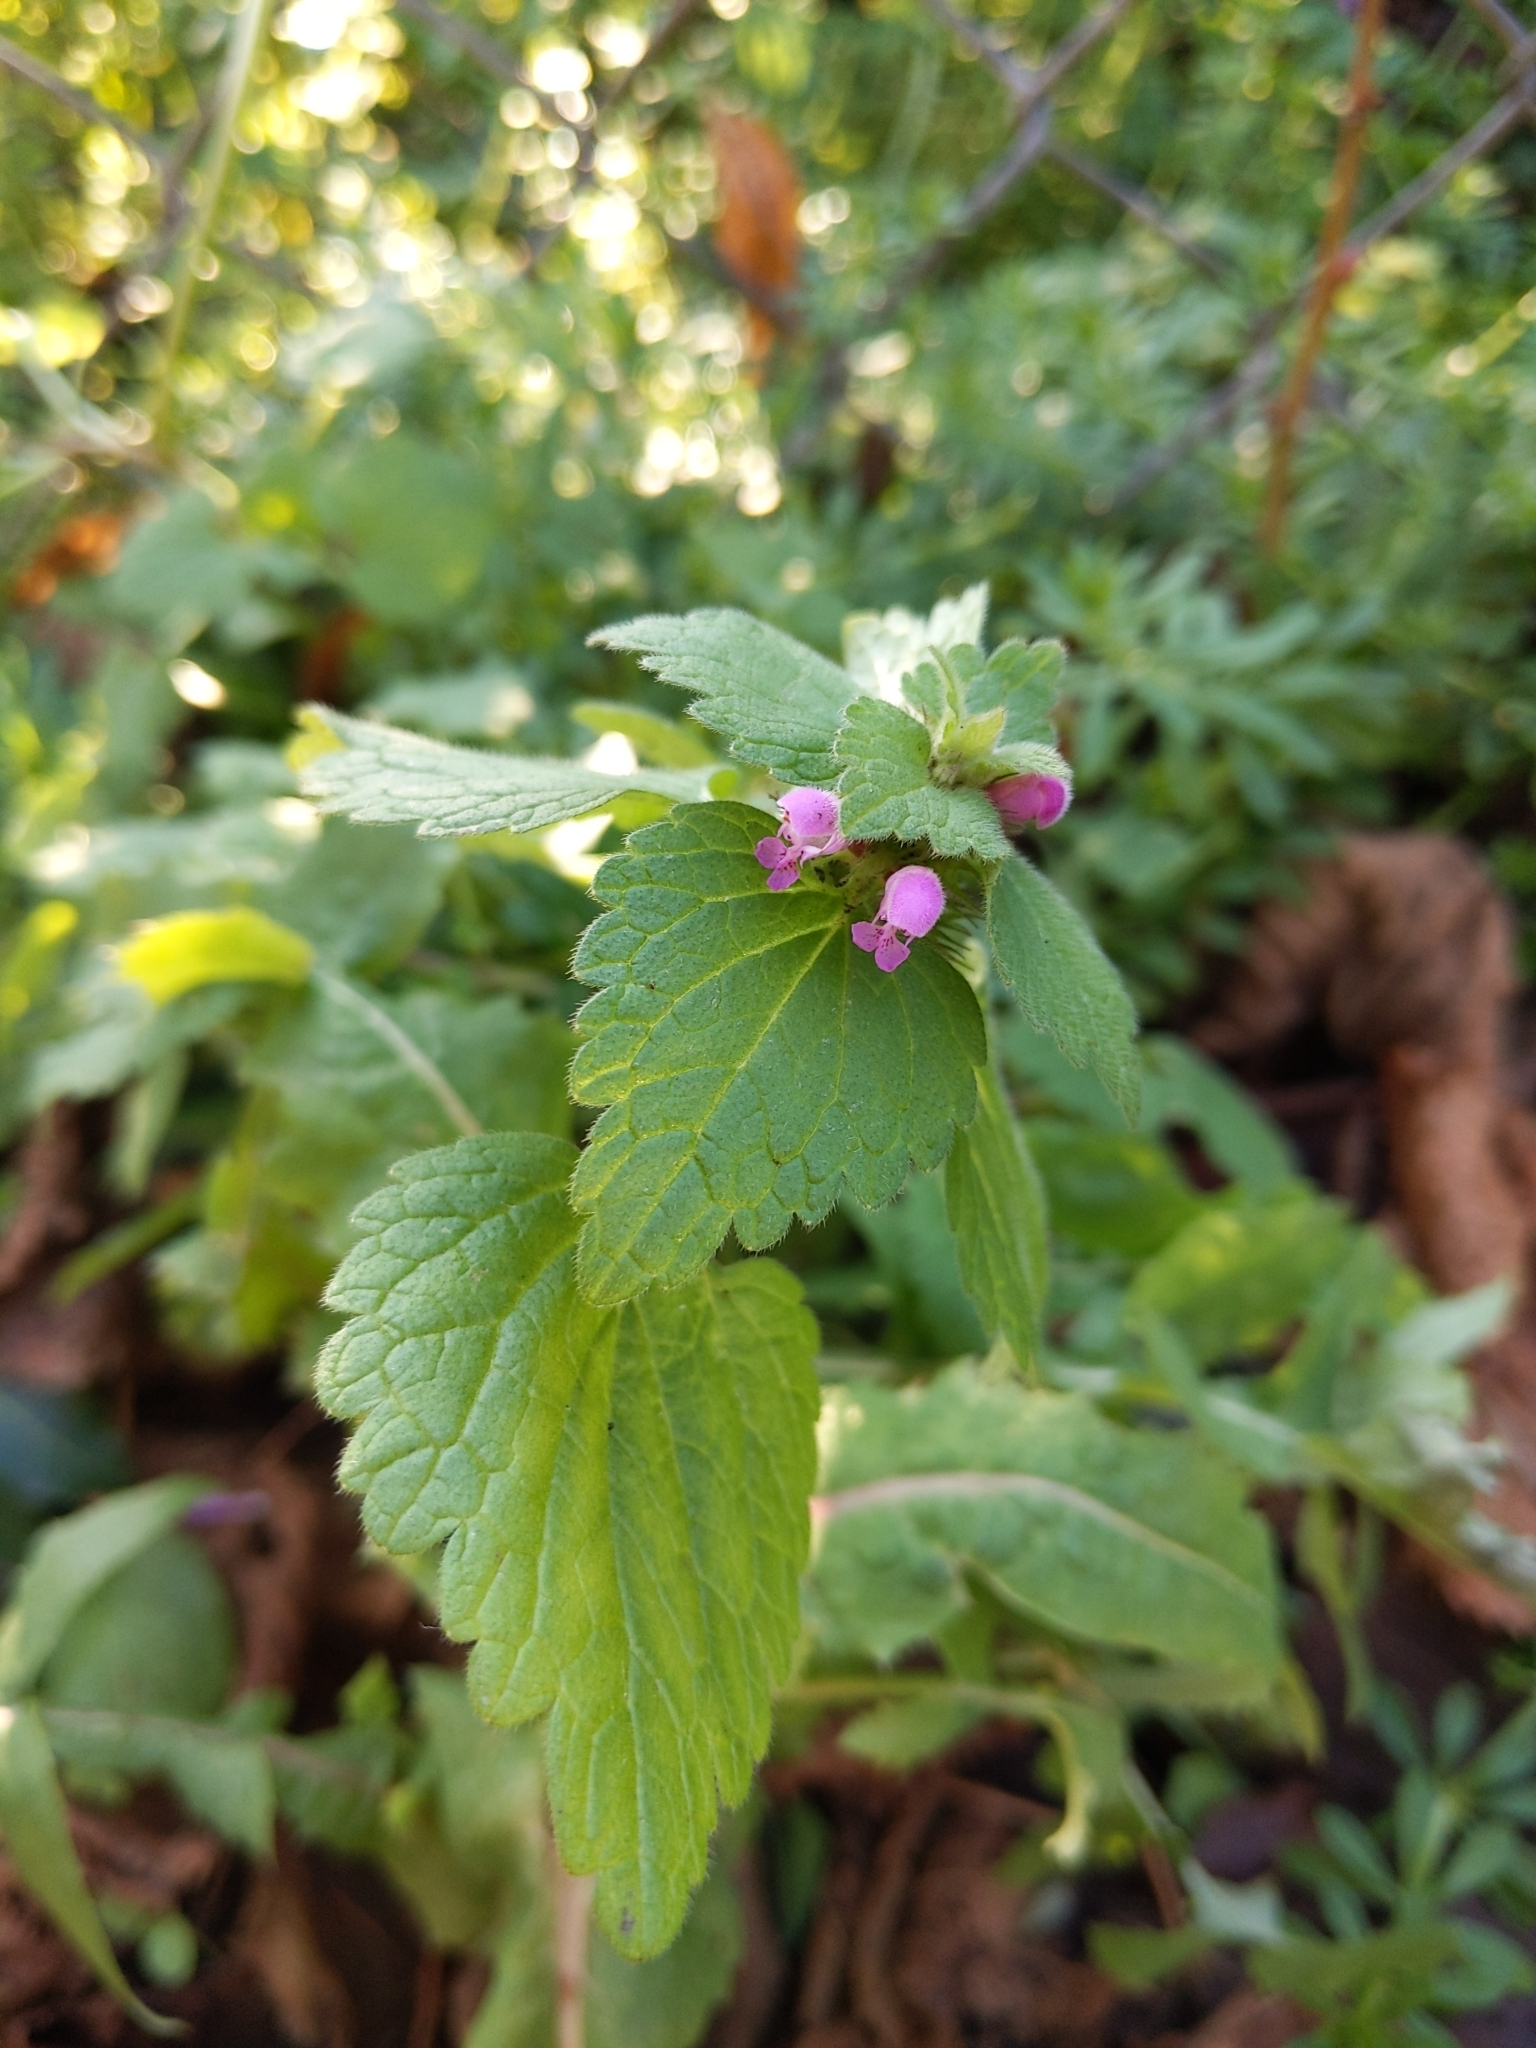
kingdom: Plantae
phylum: Tracheophyta
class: Magnoliopsida
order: Lamiales
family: Lamiaceae
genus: Lamium
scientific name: Lamium purpureum
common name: Red dead-nettle
